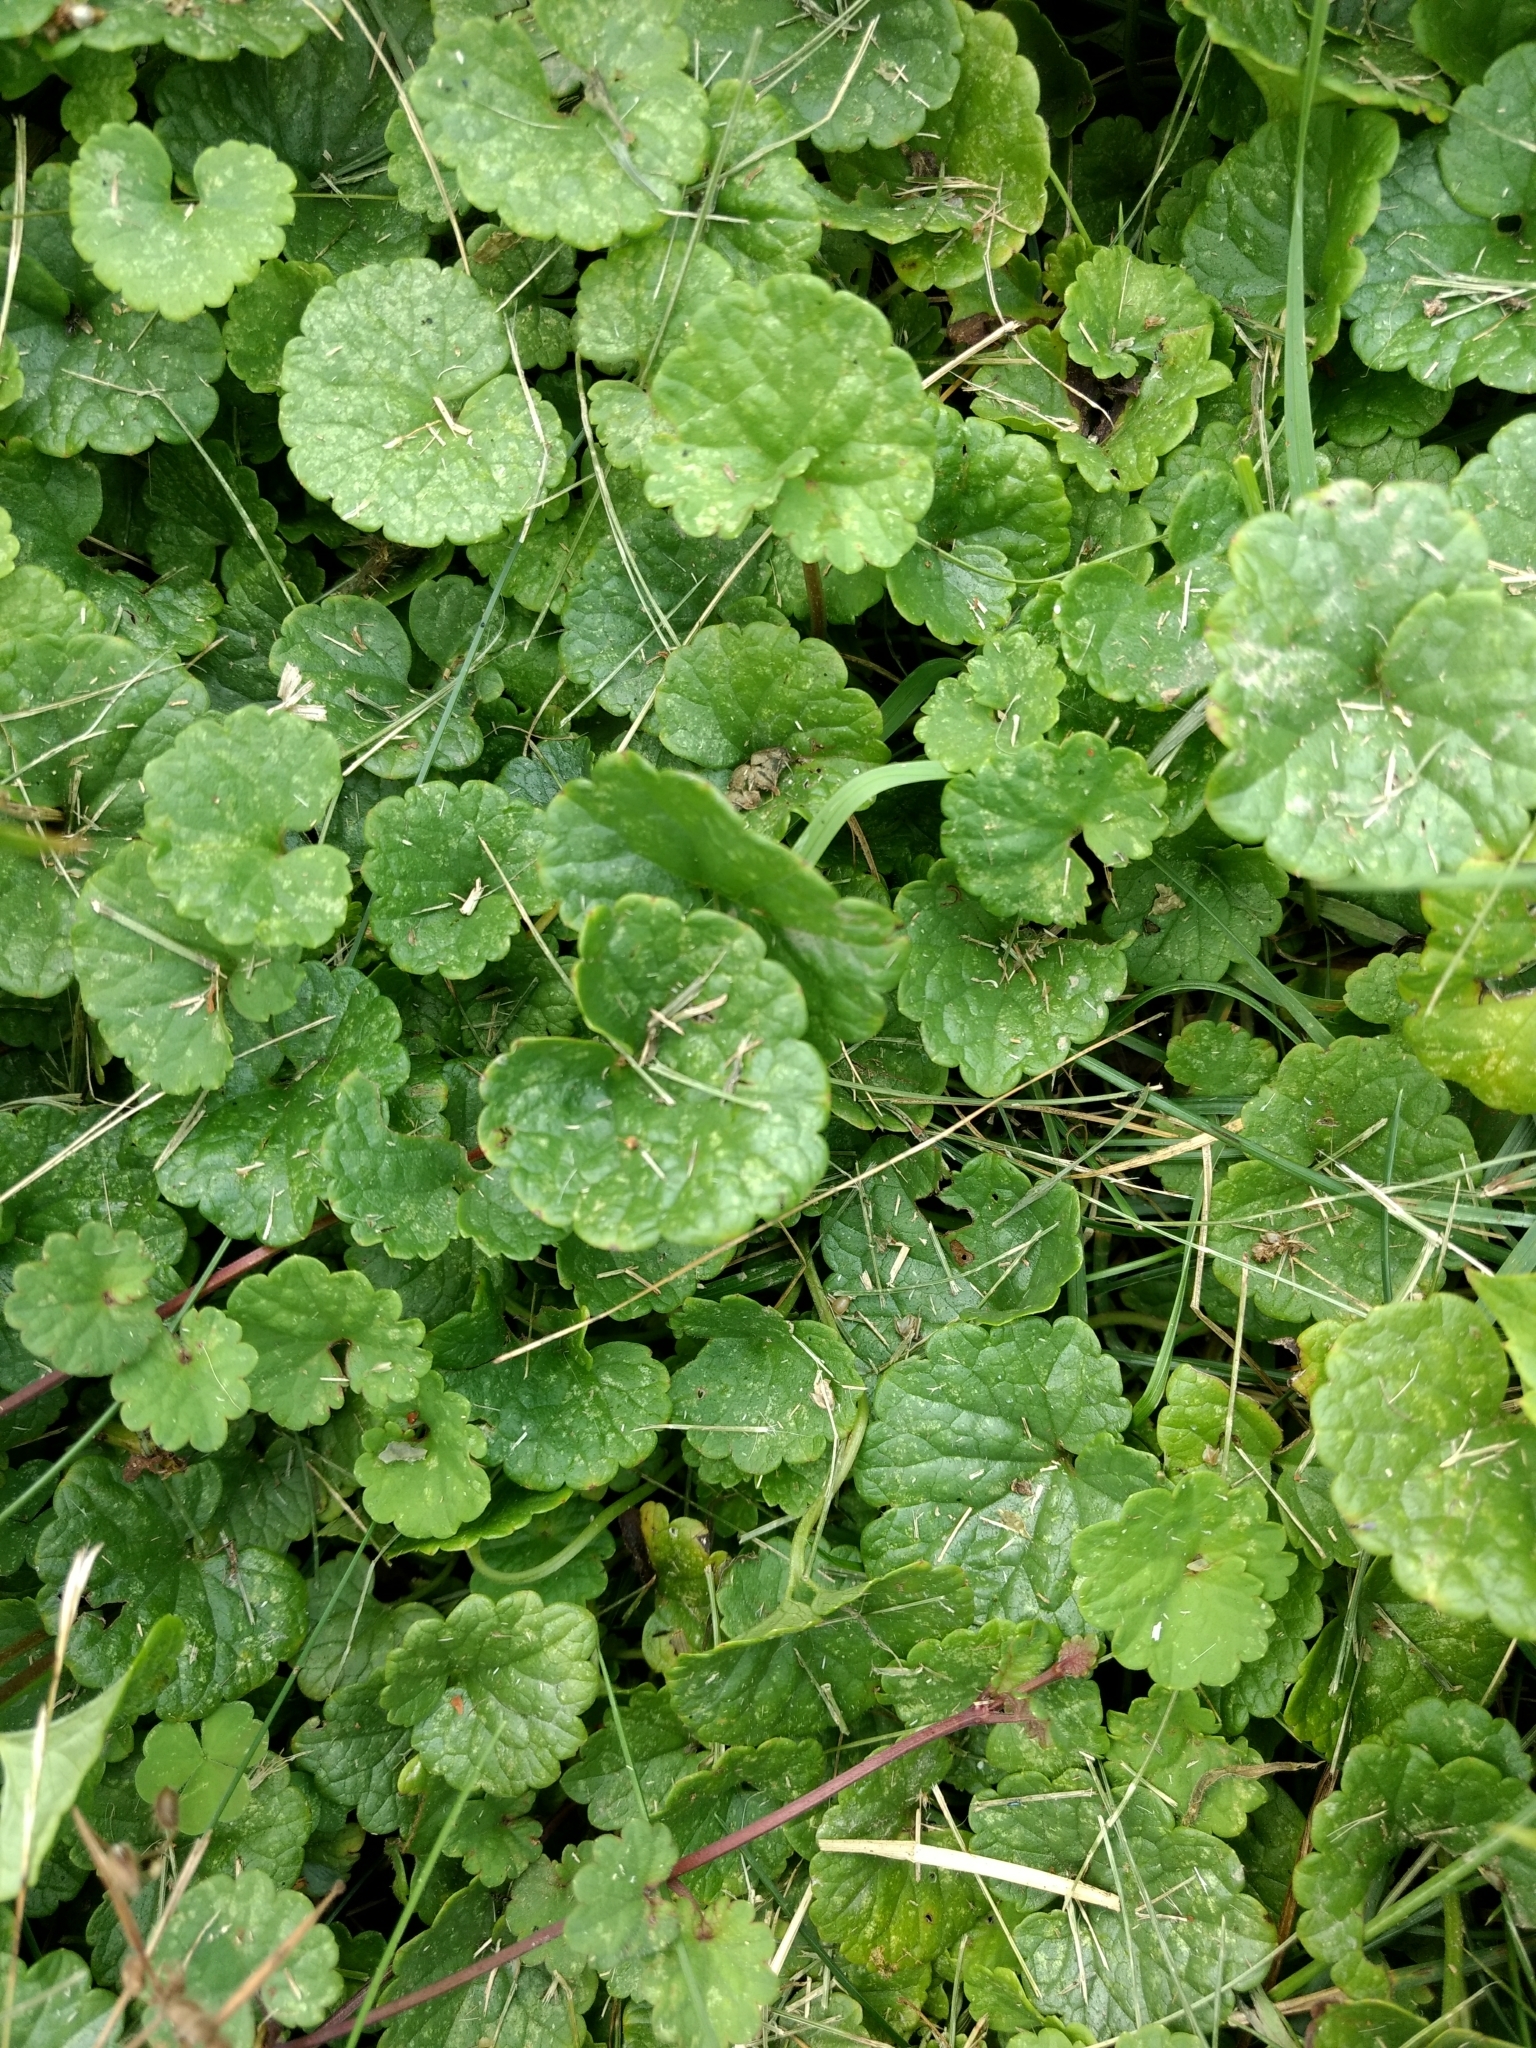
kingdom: Plantae
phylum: Tracheophyta
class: Magnoliopsida
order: Lamiales
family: Lamiaceae
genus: Glechoma
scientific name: Glechoma hederacea
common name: Ground ivy
